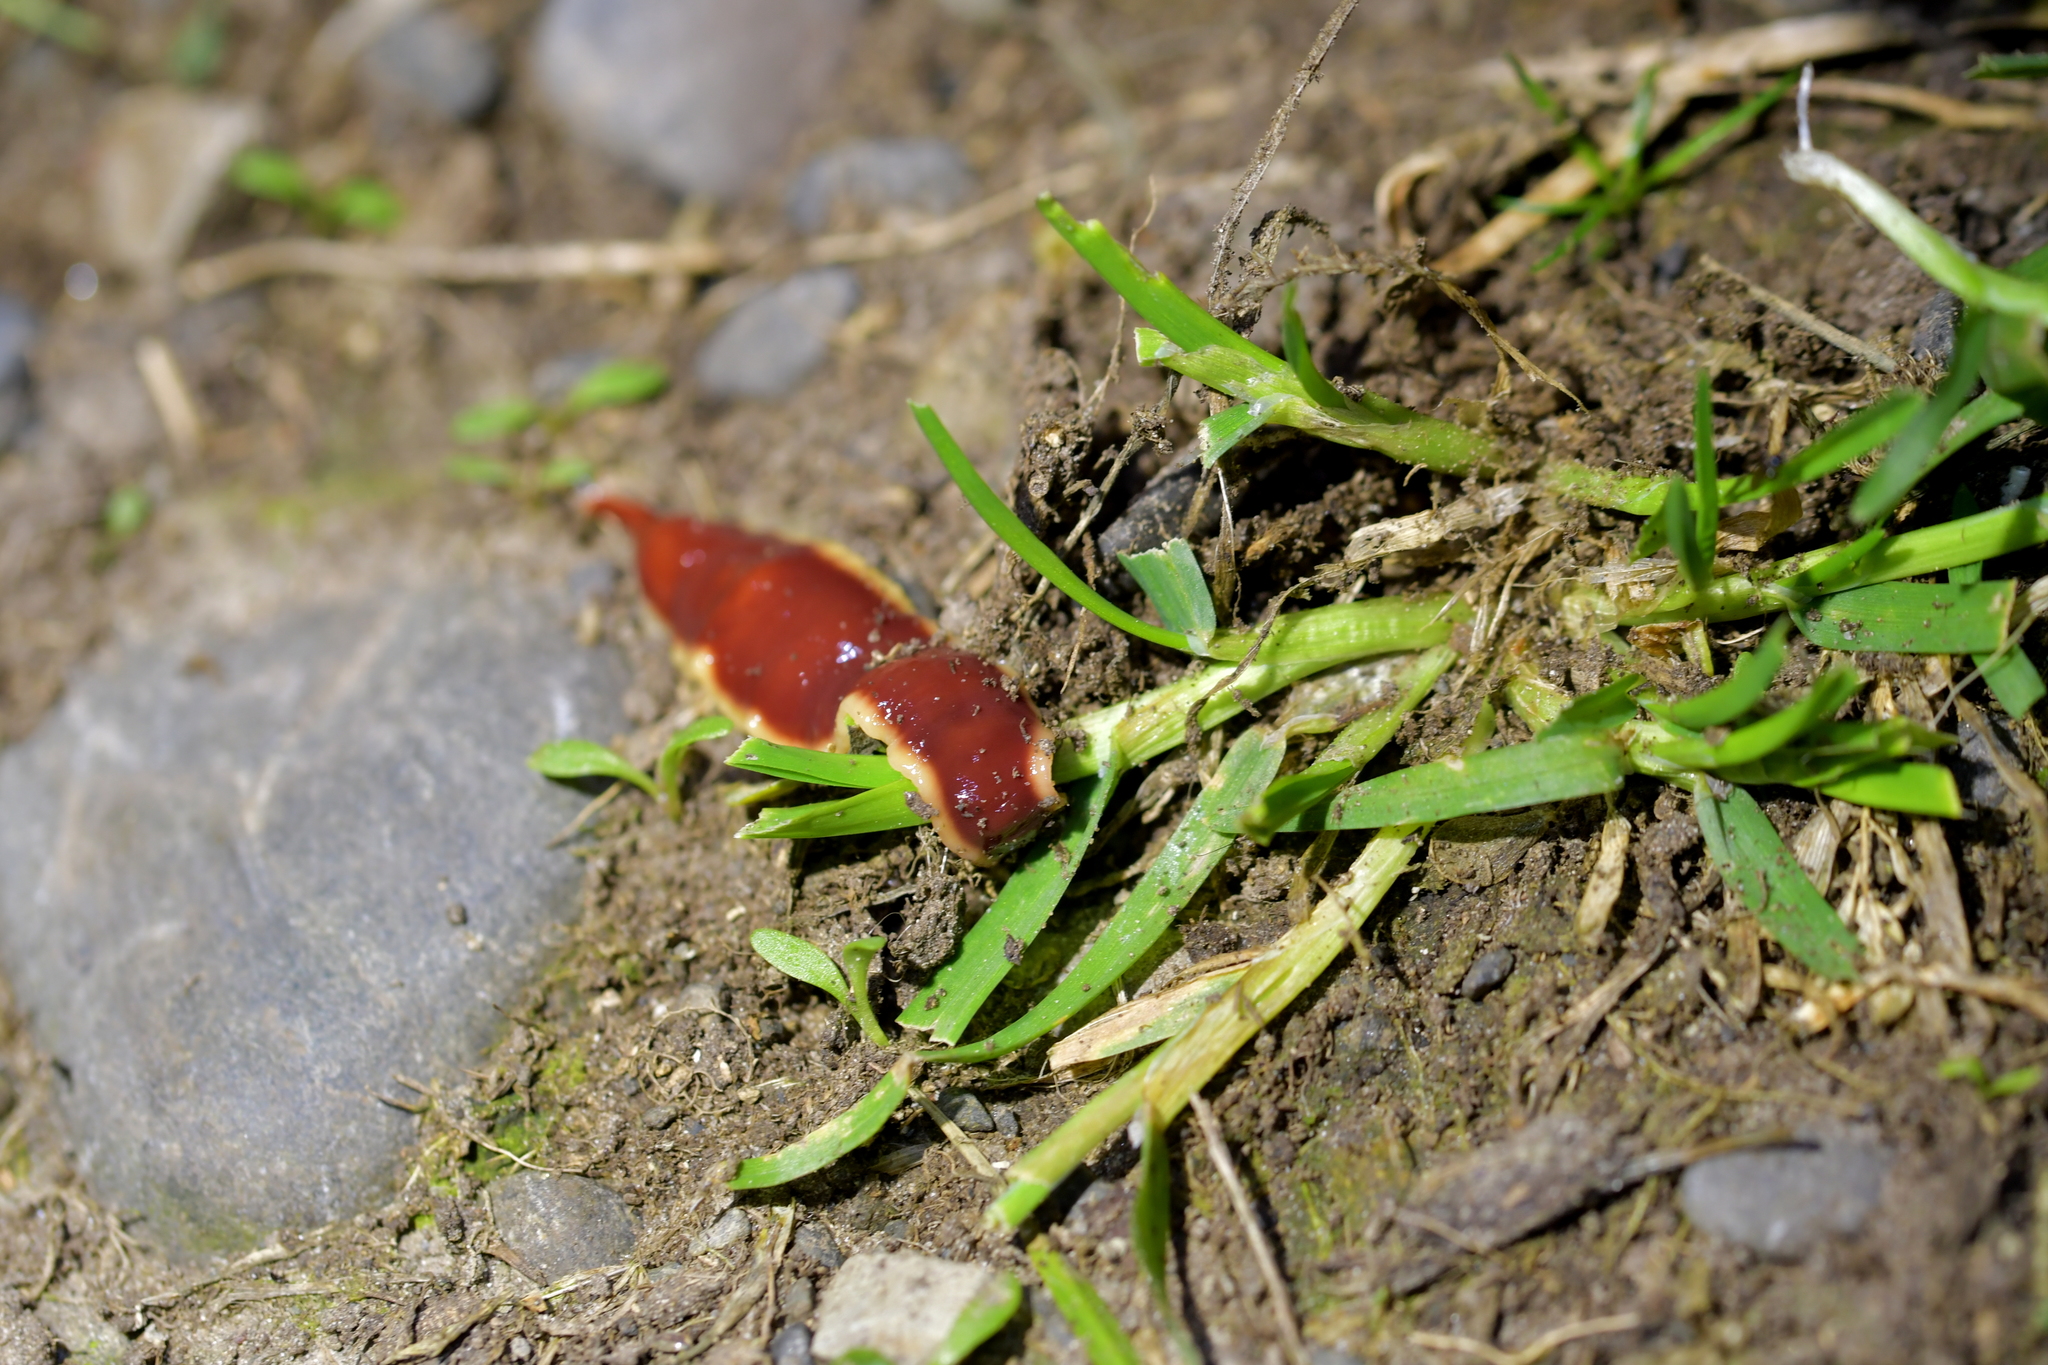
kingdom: Animalia
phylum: Platyhelminthes
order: Tricladida
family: Geoplanidae
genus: Arthurdendyus
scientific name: Arthurdendyus testaceus
